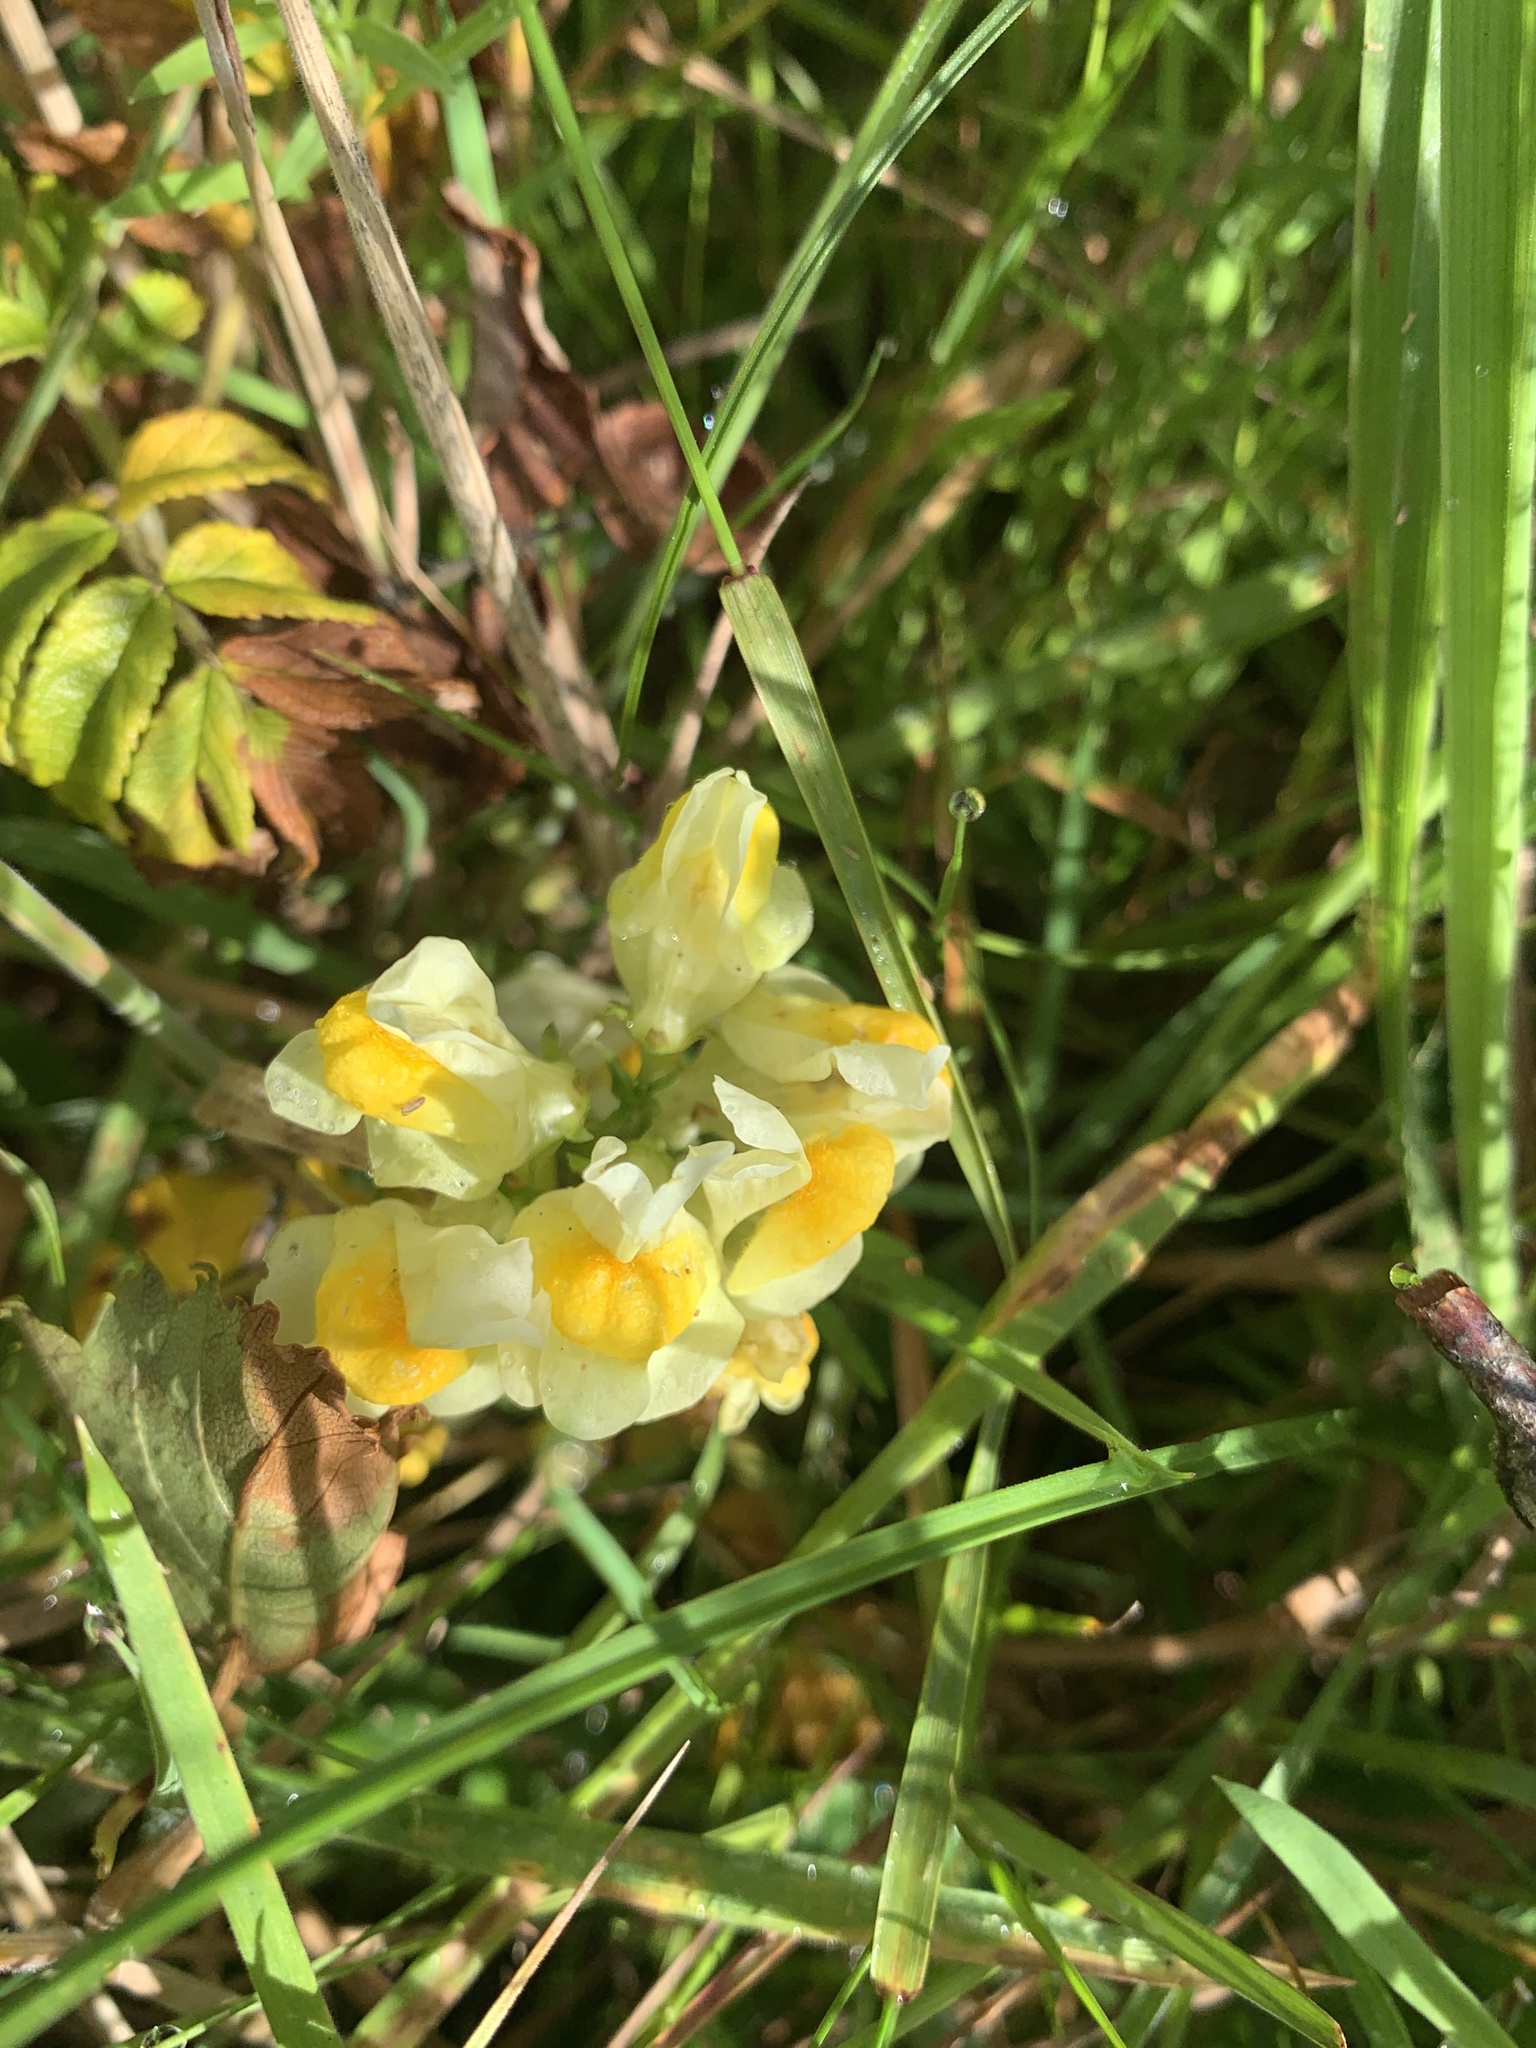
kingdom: Plantae
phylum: Tracheophyta
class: Magnoliopsida
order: Lamiales
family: Plantaginaceae
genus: Linaria
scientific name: Linaria vulgaris
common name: Butter and eggs
